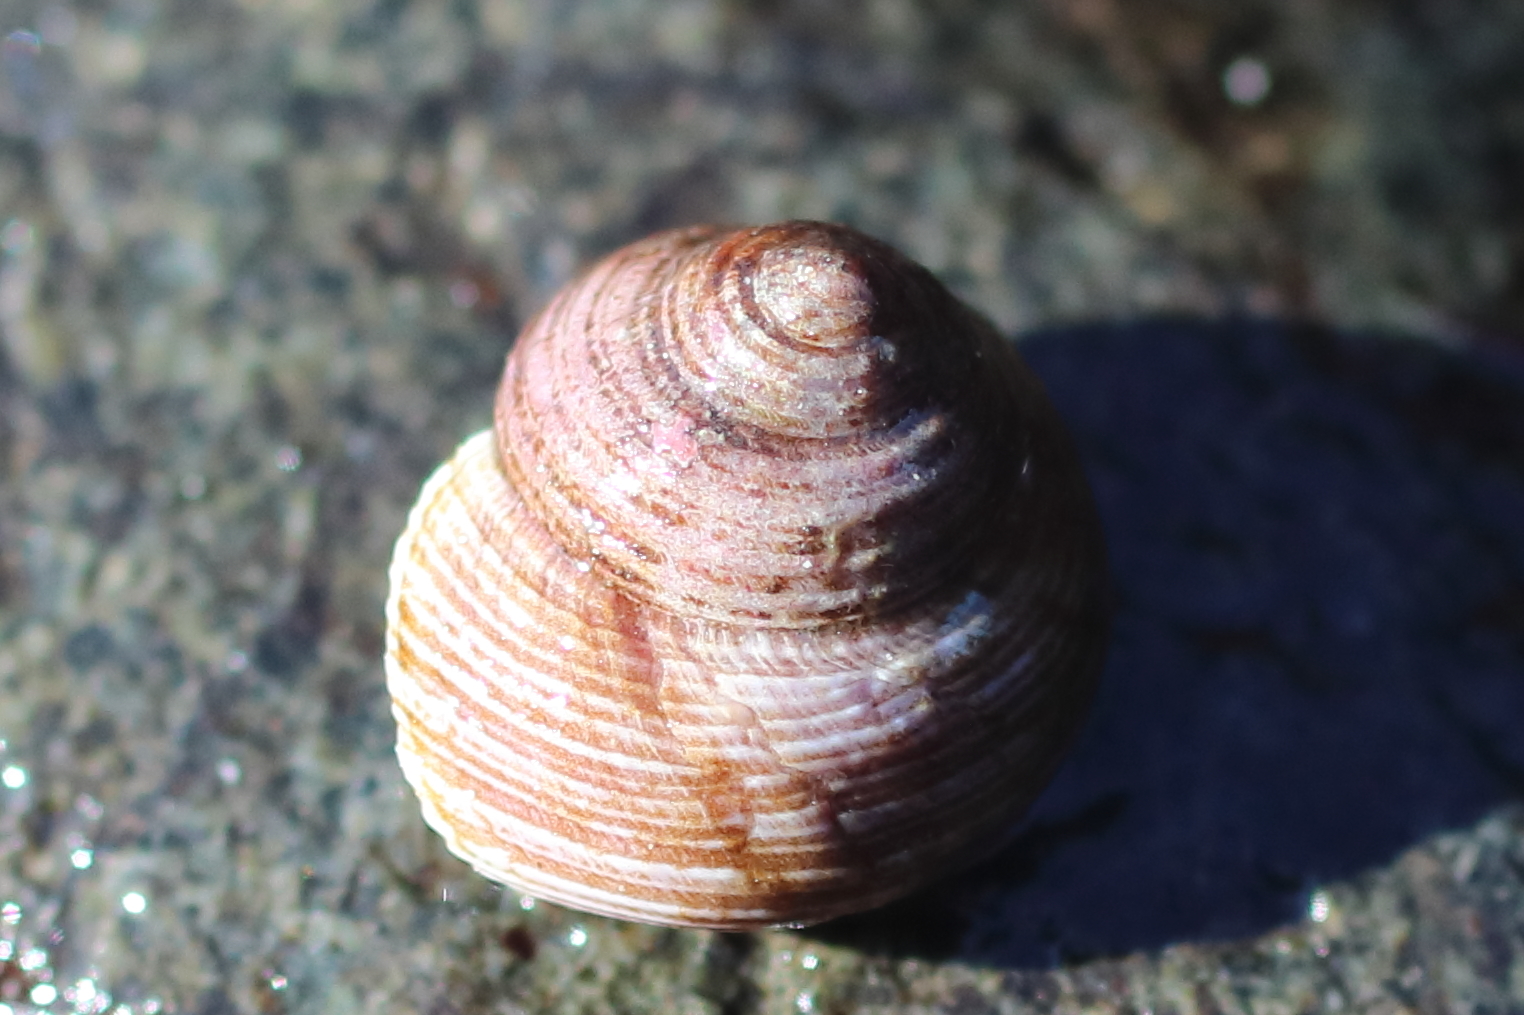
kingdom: Animalia
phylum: Mollusca
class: Gastropoda
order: Trochida
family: Margaritidae
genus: Margarites
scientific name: Margarites pupillus
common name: Puppet margarite
